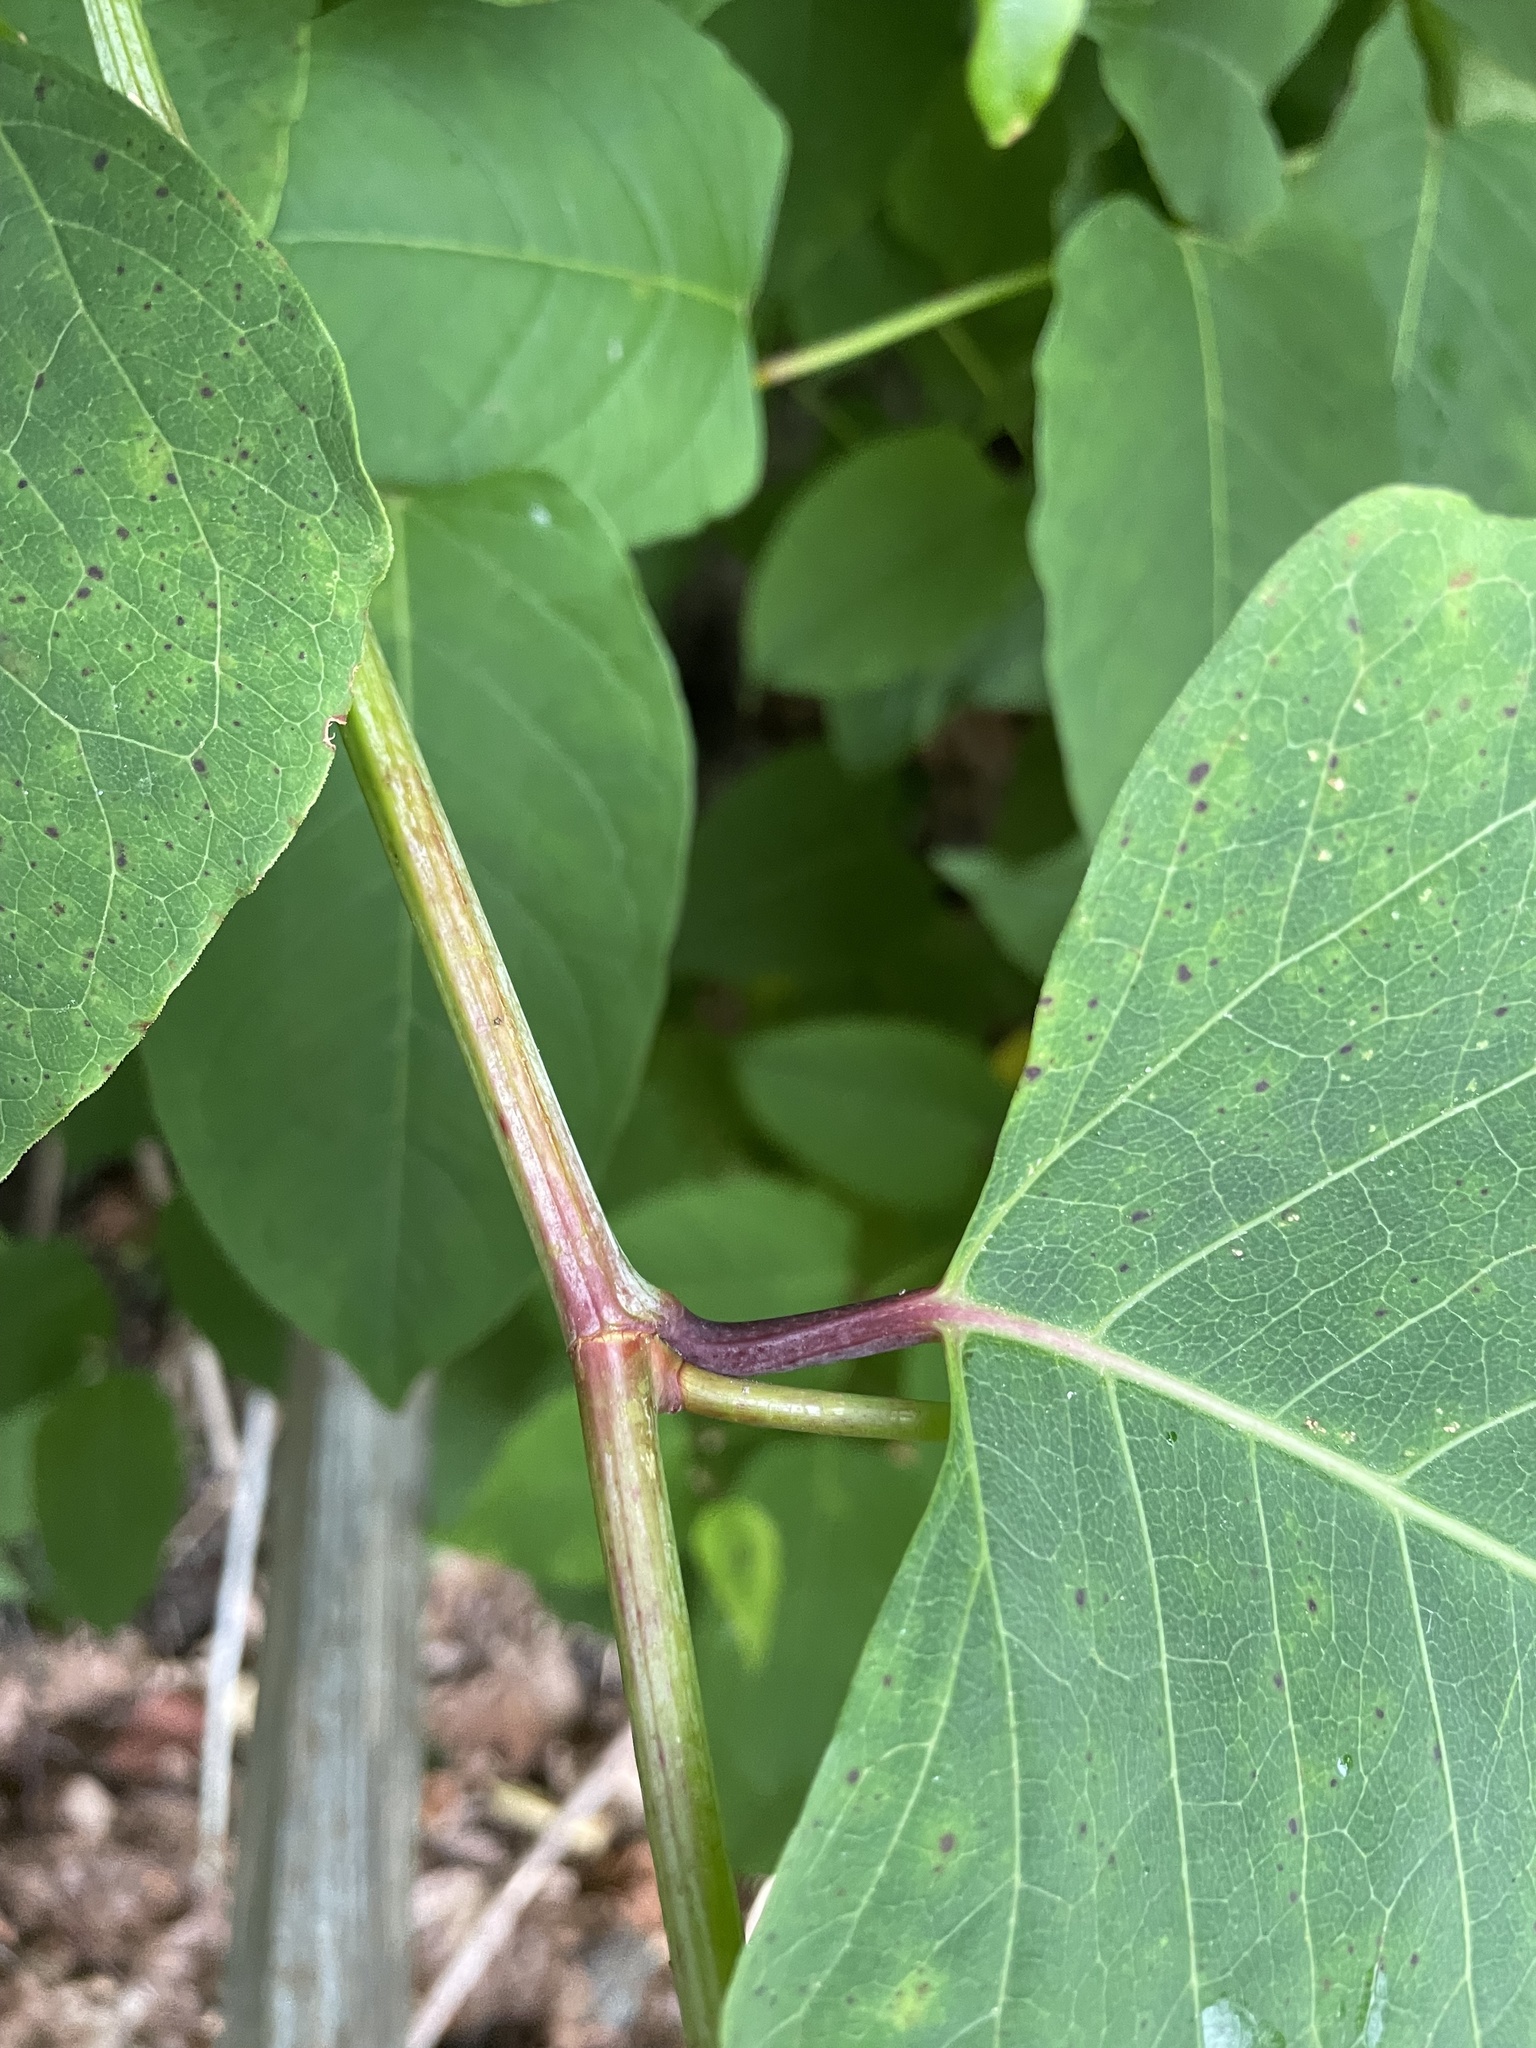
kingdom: Plantae
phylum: Tracheophyta
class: Magnoliopsida
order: Caryophyllales
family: Polygonaceae
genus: Reynoutria
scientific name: Reynoutria japonica
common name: Japanese knotweed
